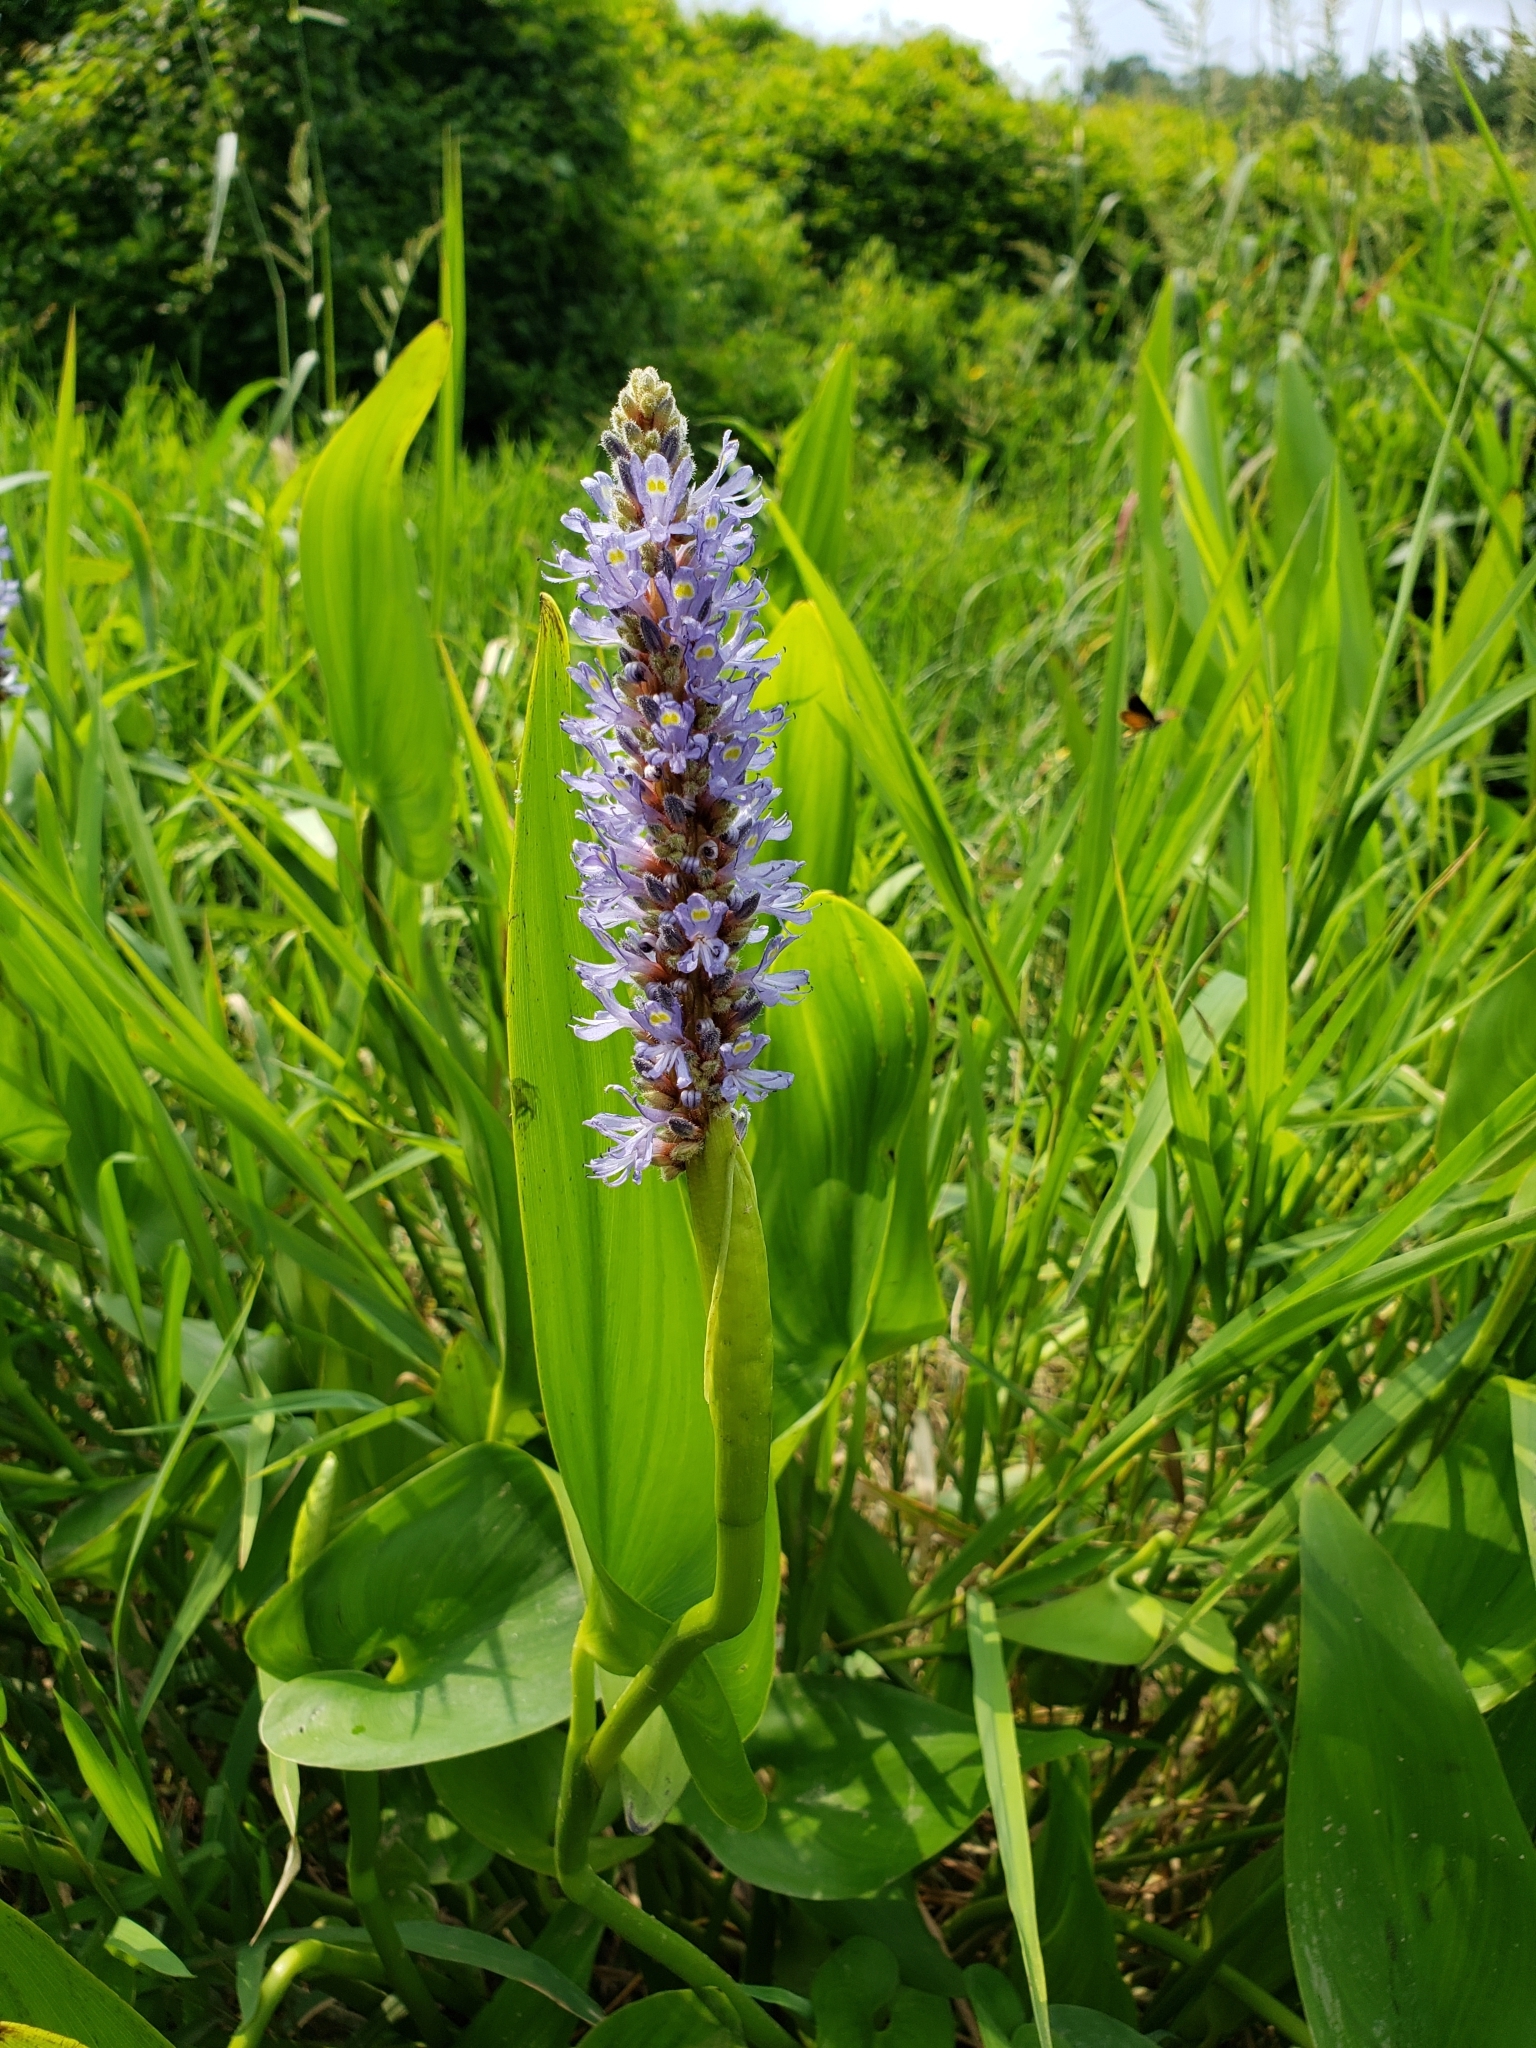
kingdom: Plantae
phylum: Tracheophyta
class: Liliopsida
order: Commelinales
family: Pontederiaceae
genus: Pontederia
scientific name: Pontederia cordata
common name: Pickerelweed
